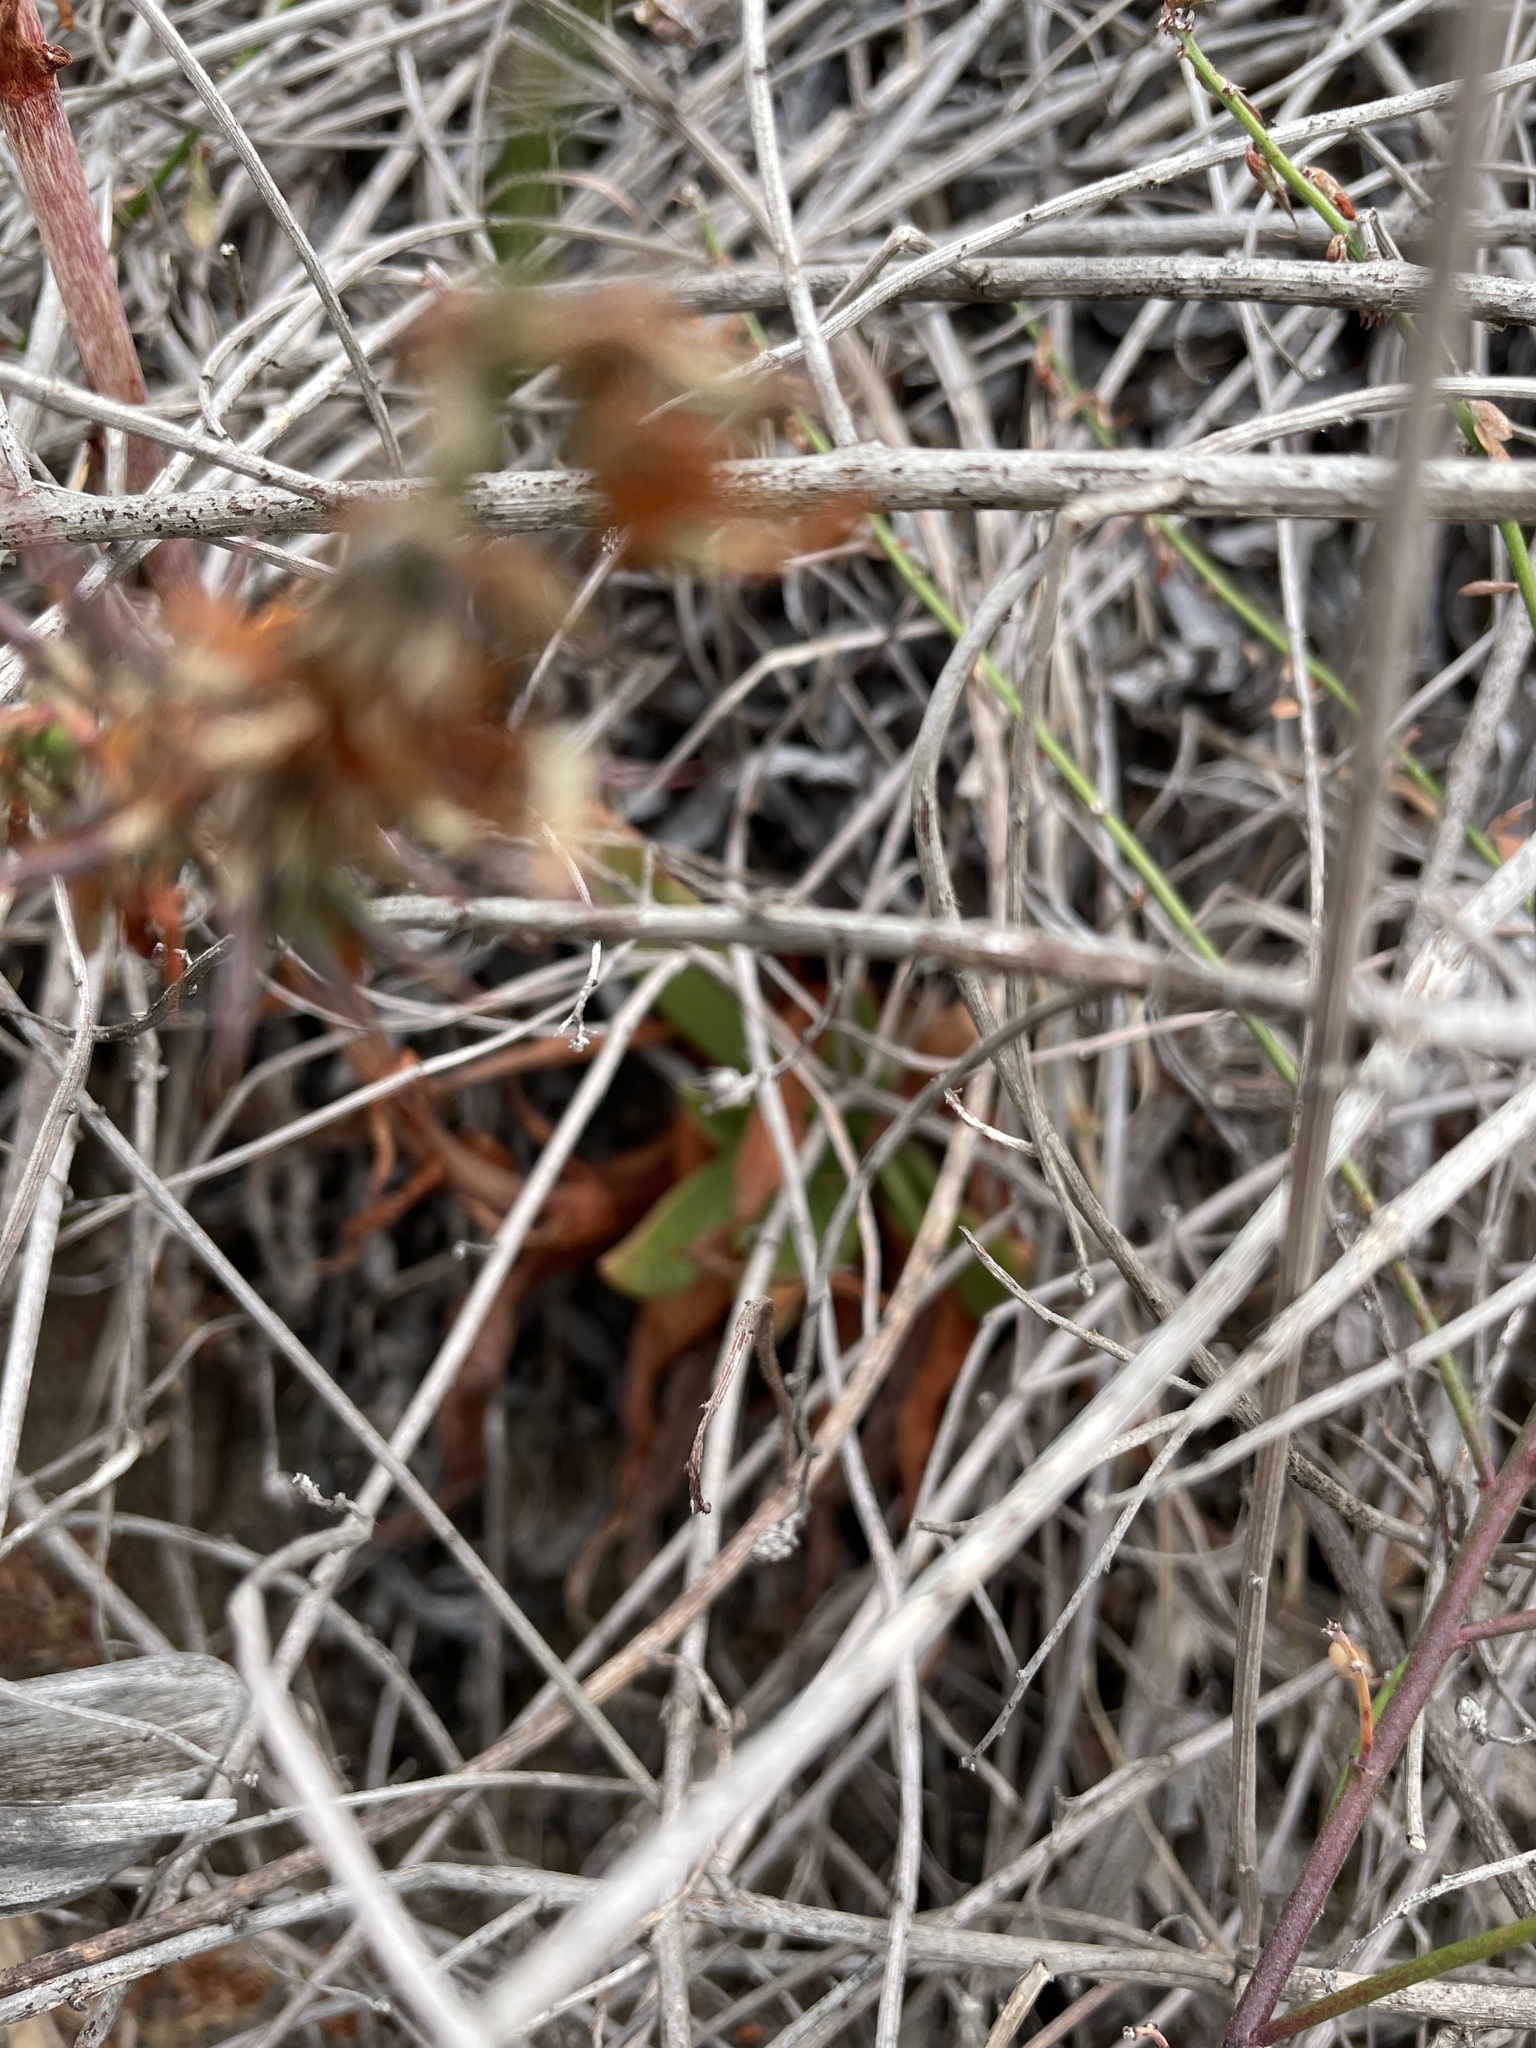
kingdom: Plantae
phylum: Tracheophyta
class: Magnoliopsida
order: Saxifragales
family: Crassulaceae
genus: Dudleya
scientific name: Dudleya caespitosa
